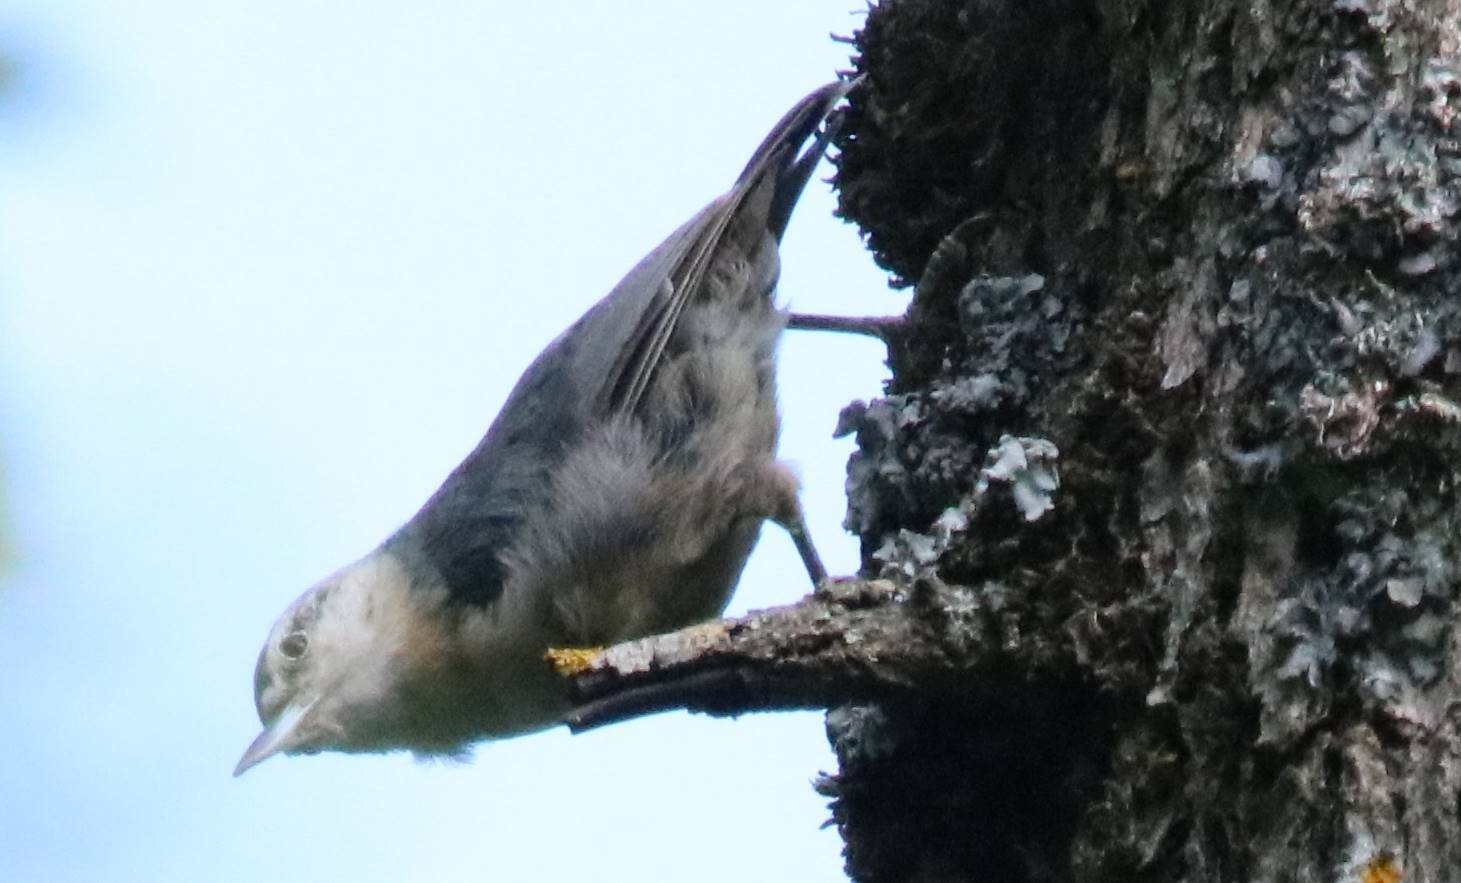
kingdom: Animalia
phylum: Chordata
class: Aves
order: Passeriformes
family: Sittidae
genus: Sitta
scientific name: Sitta ledanti
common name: Algerian nuthatch
